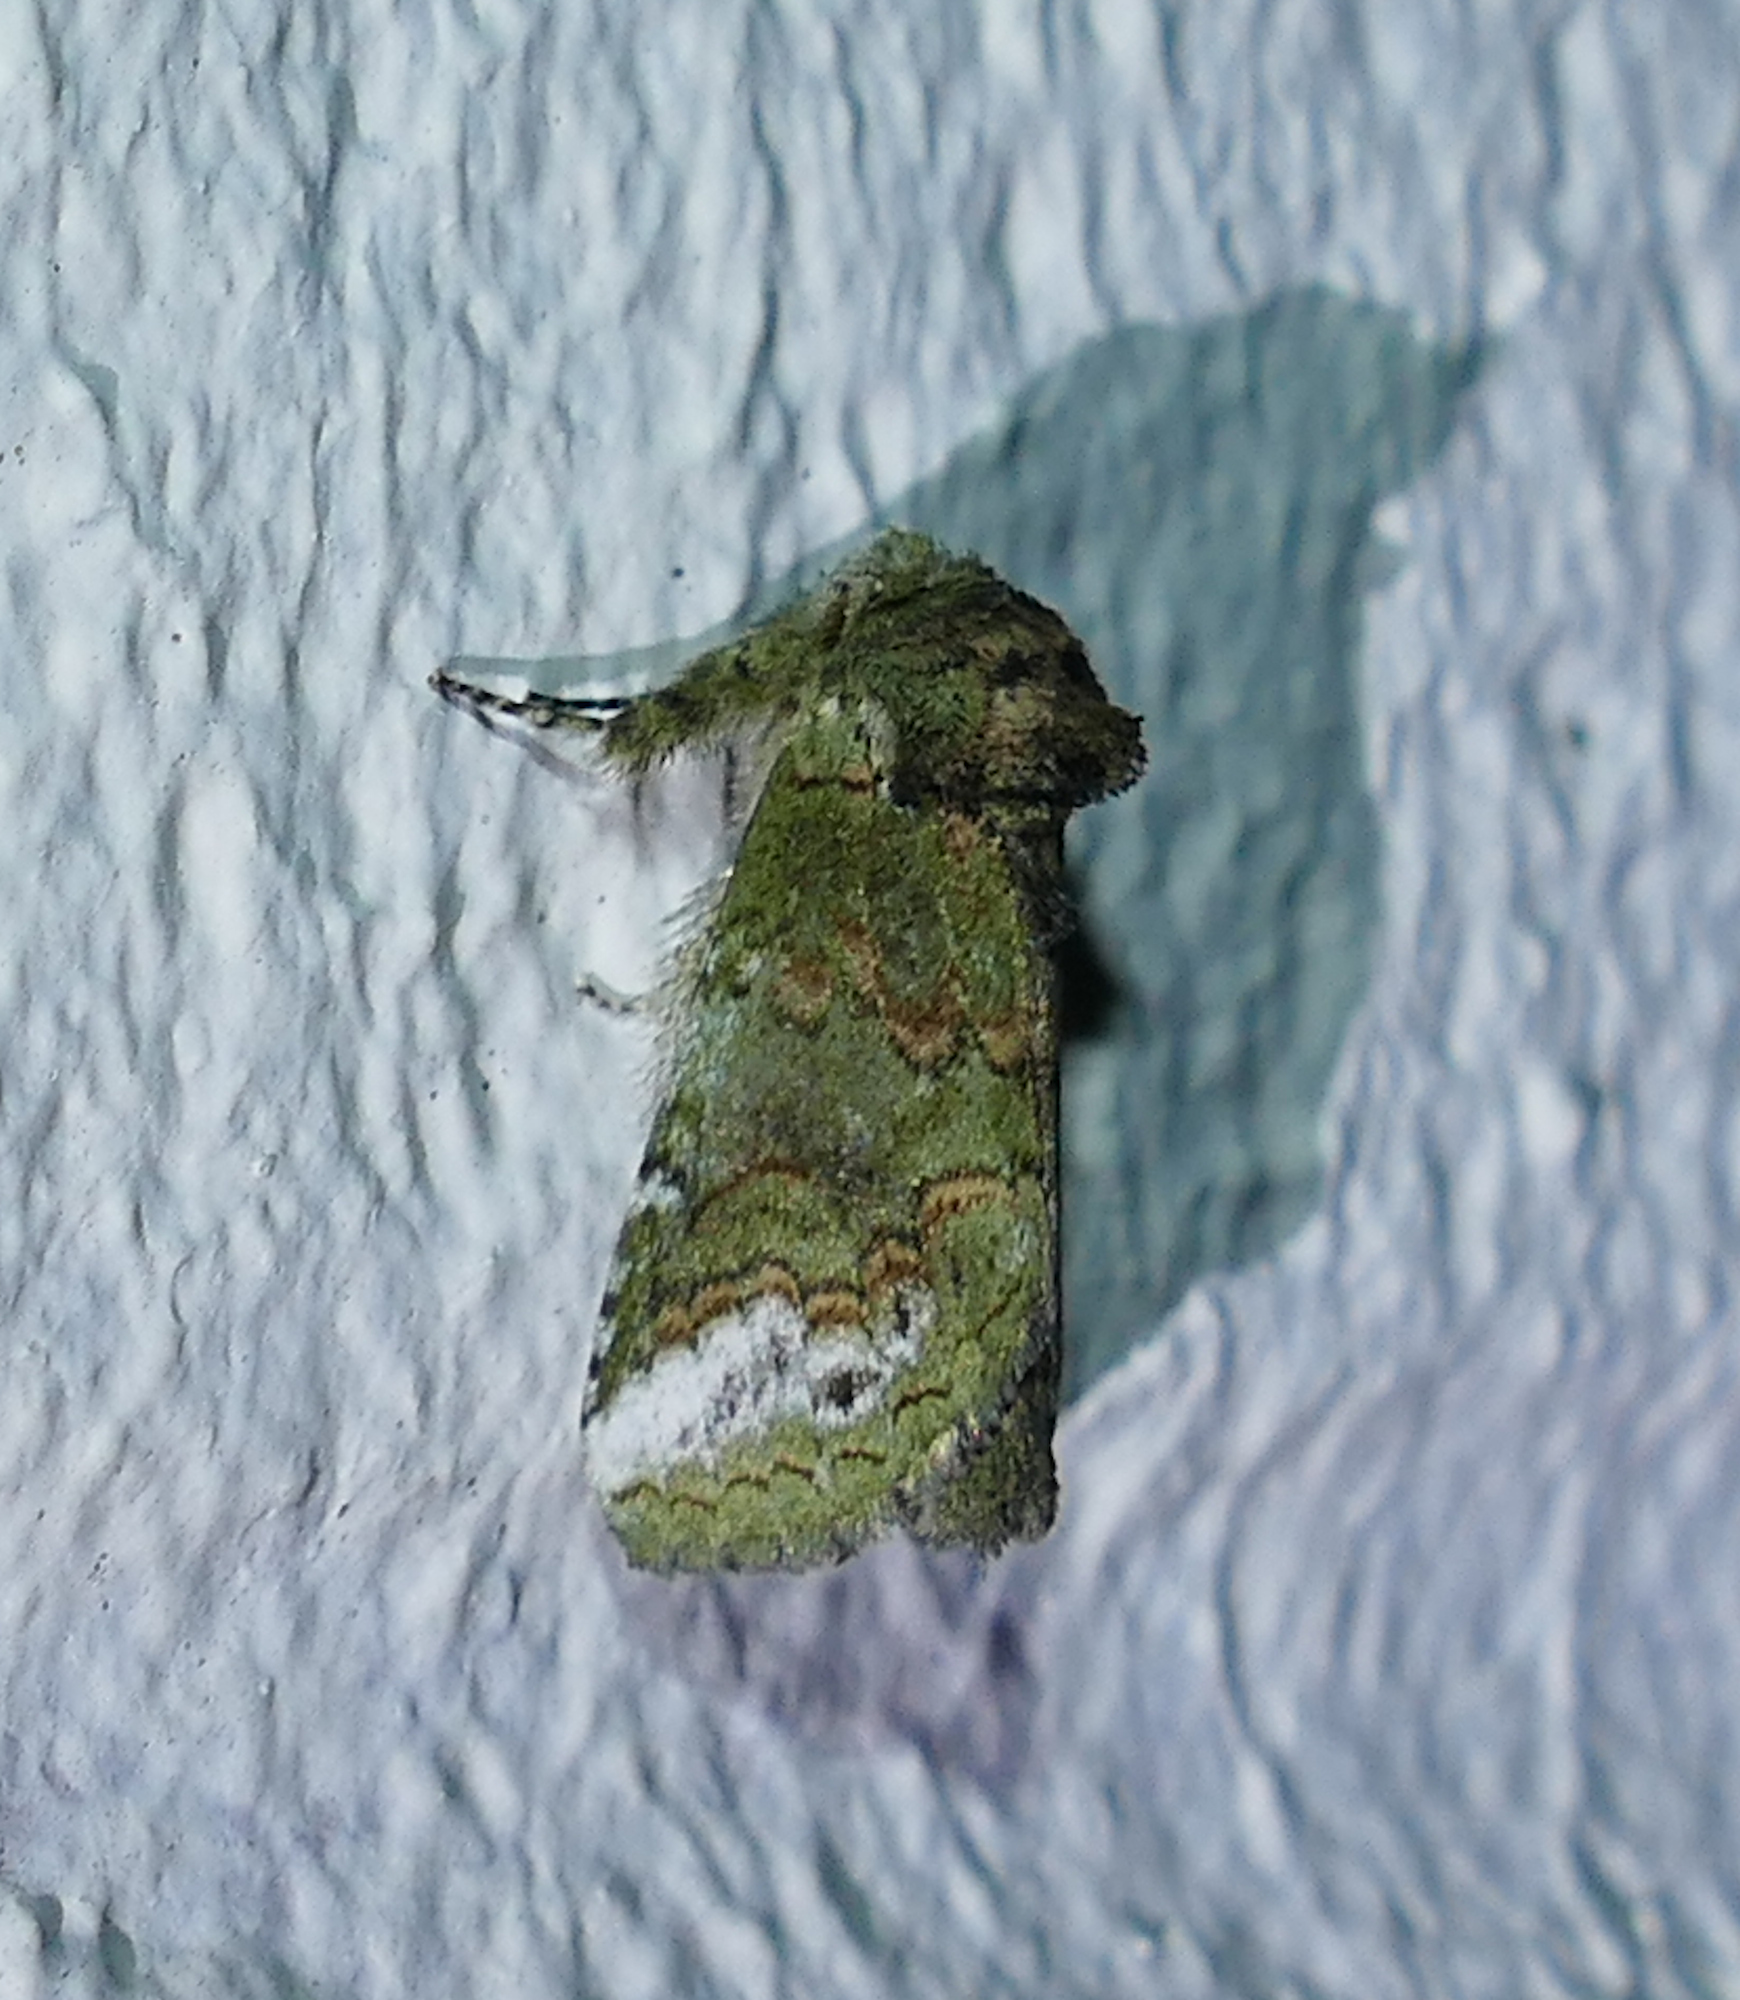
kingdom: Animalia
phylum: Arthropoda
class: Insecta
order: Lepidoptera
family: Notodontidae
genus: Rifargia
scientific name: Rifargia
